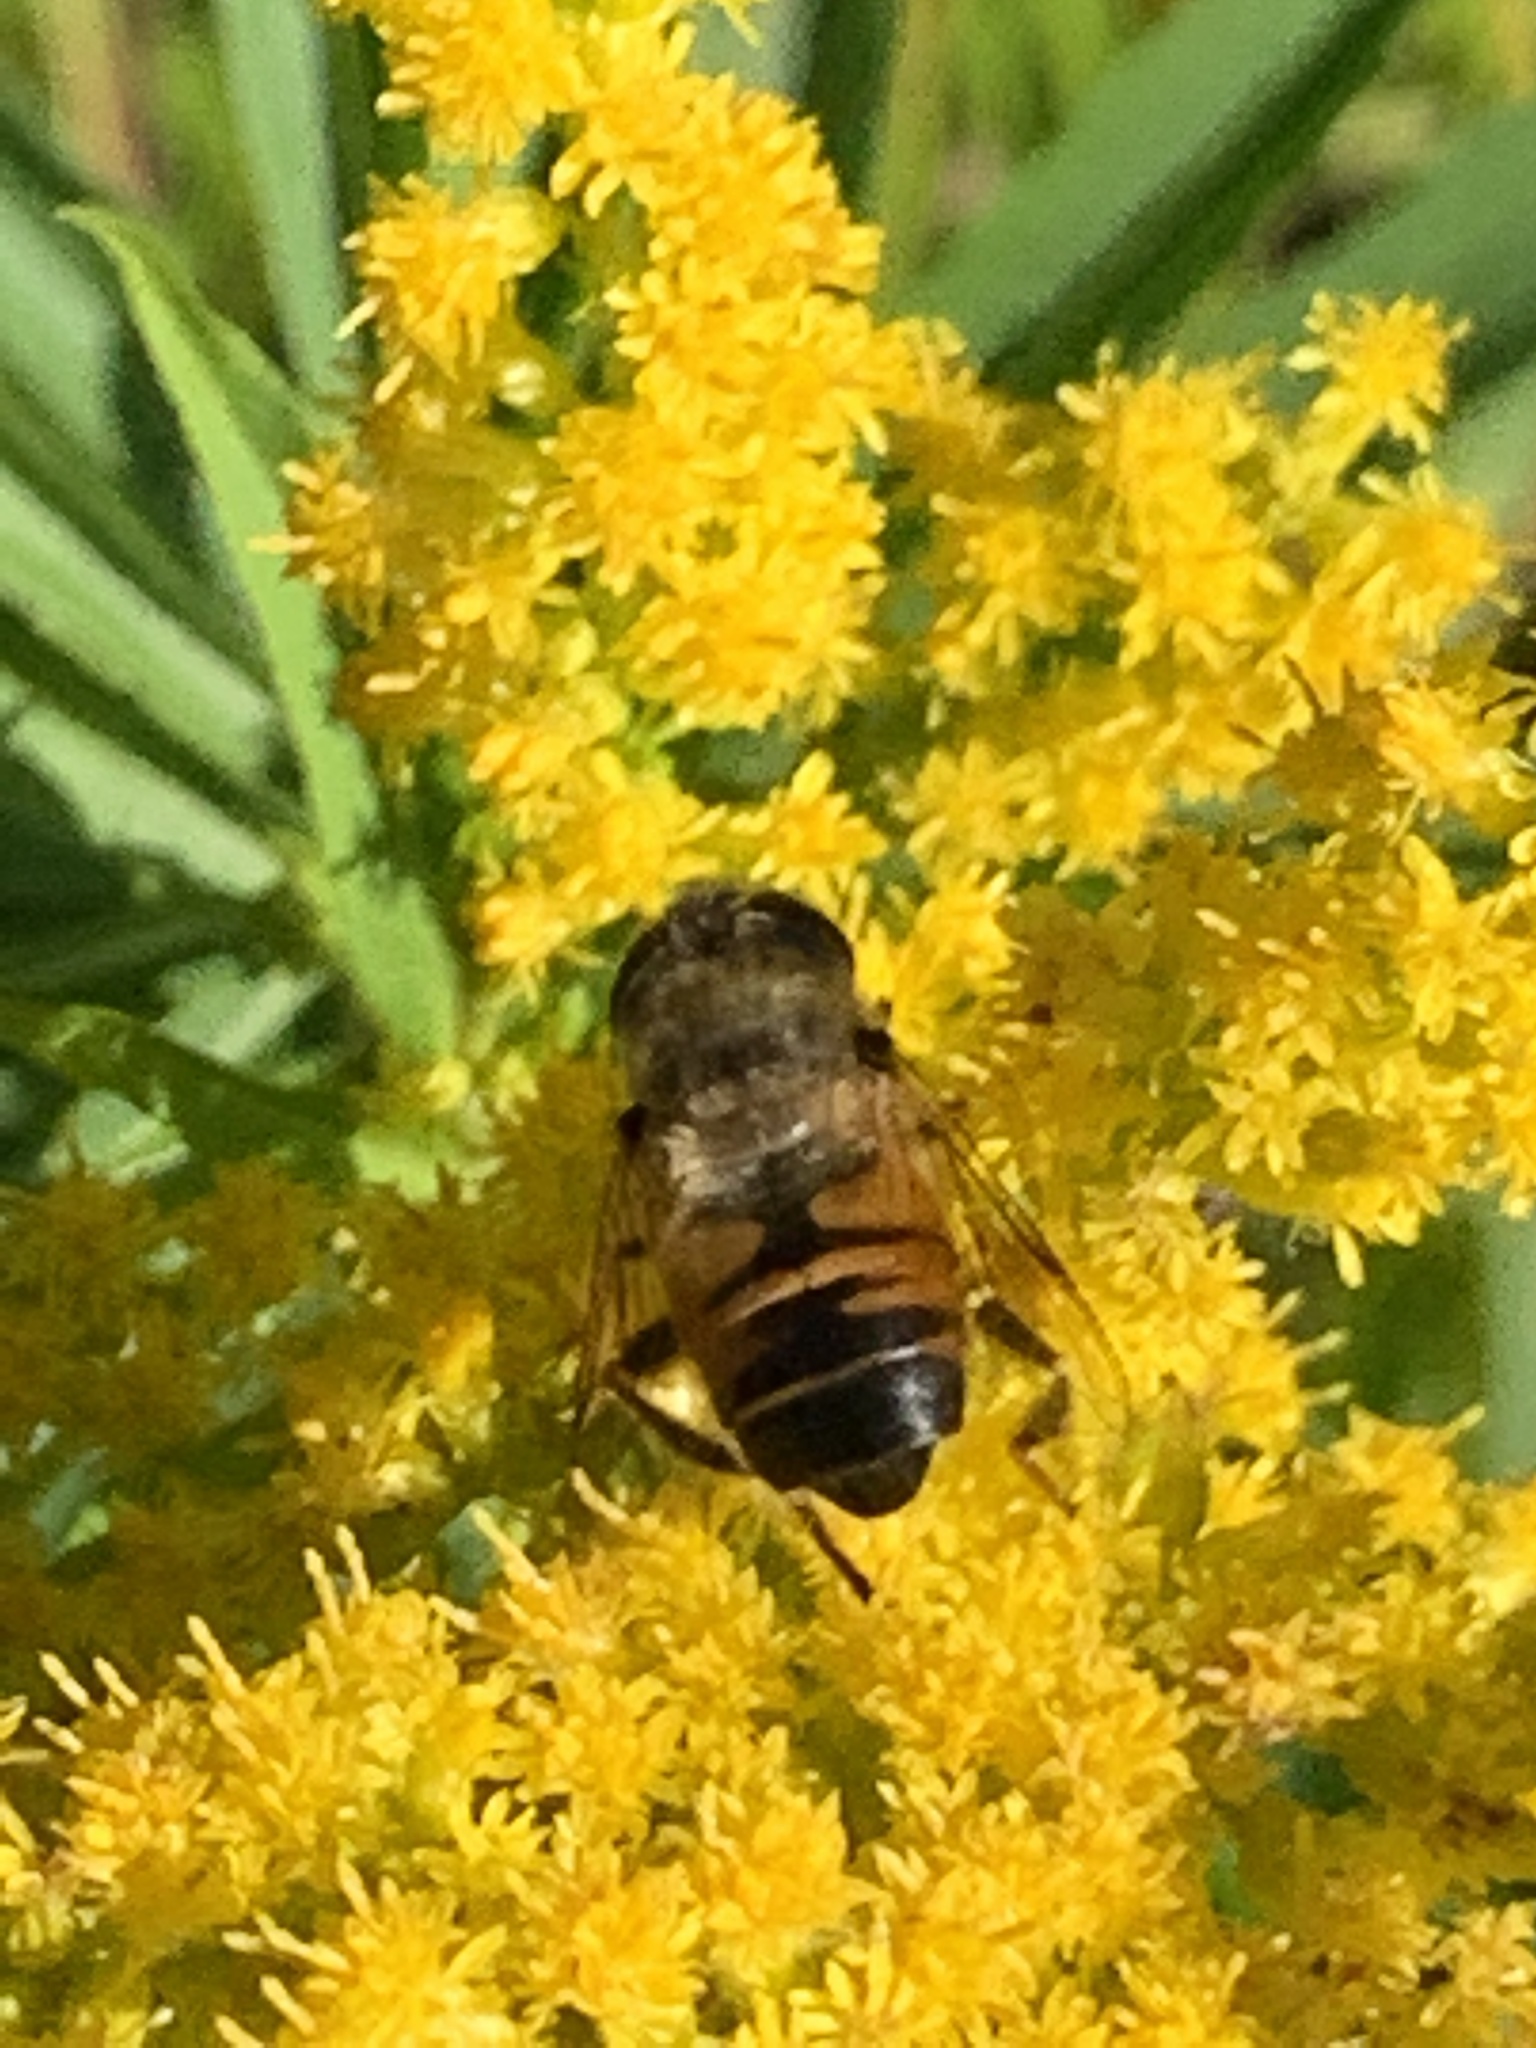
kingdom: Animalia
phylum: Arthropoda
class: Insecta
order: Diptera
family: Syrphidae
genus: Eristalis
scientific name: Eristalis tenax
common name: Drone fly
